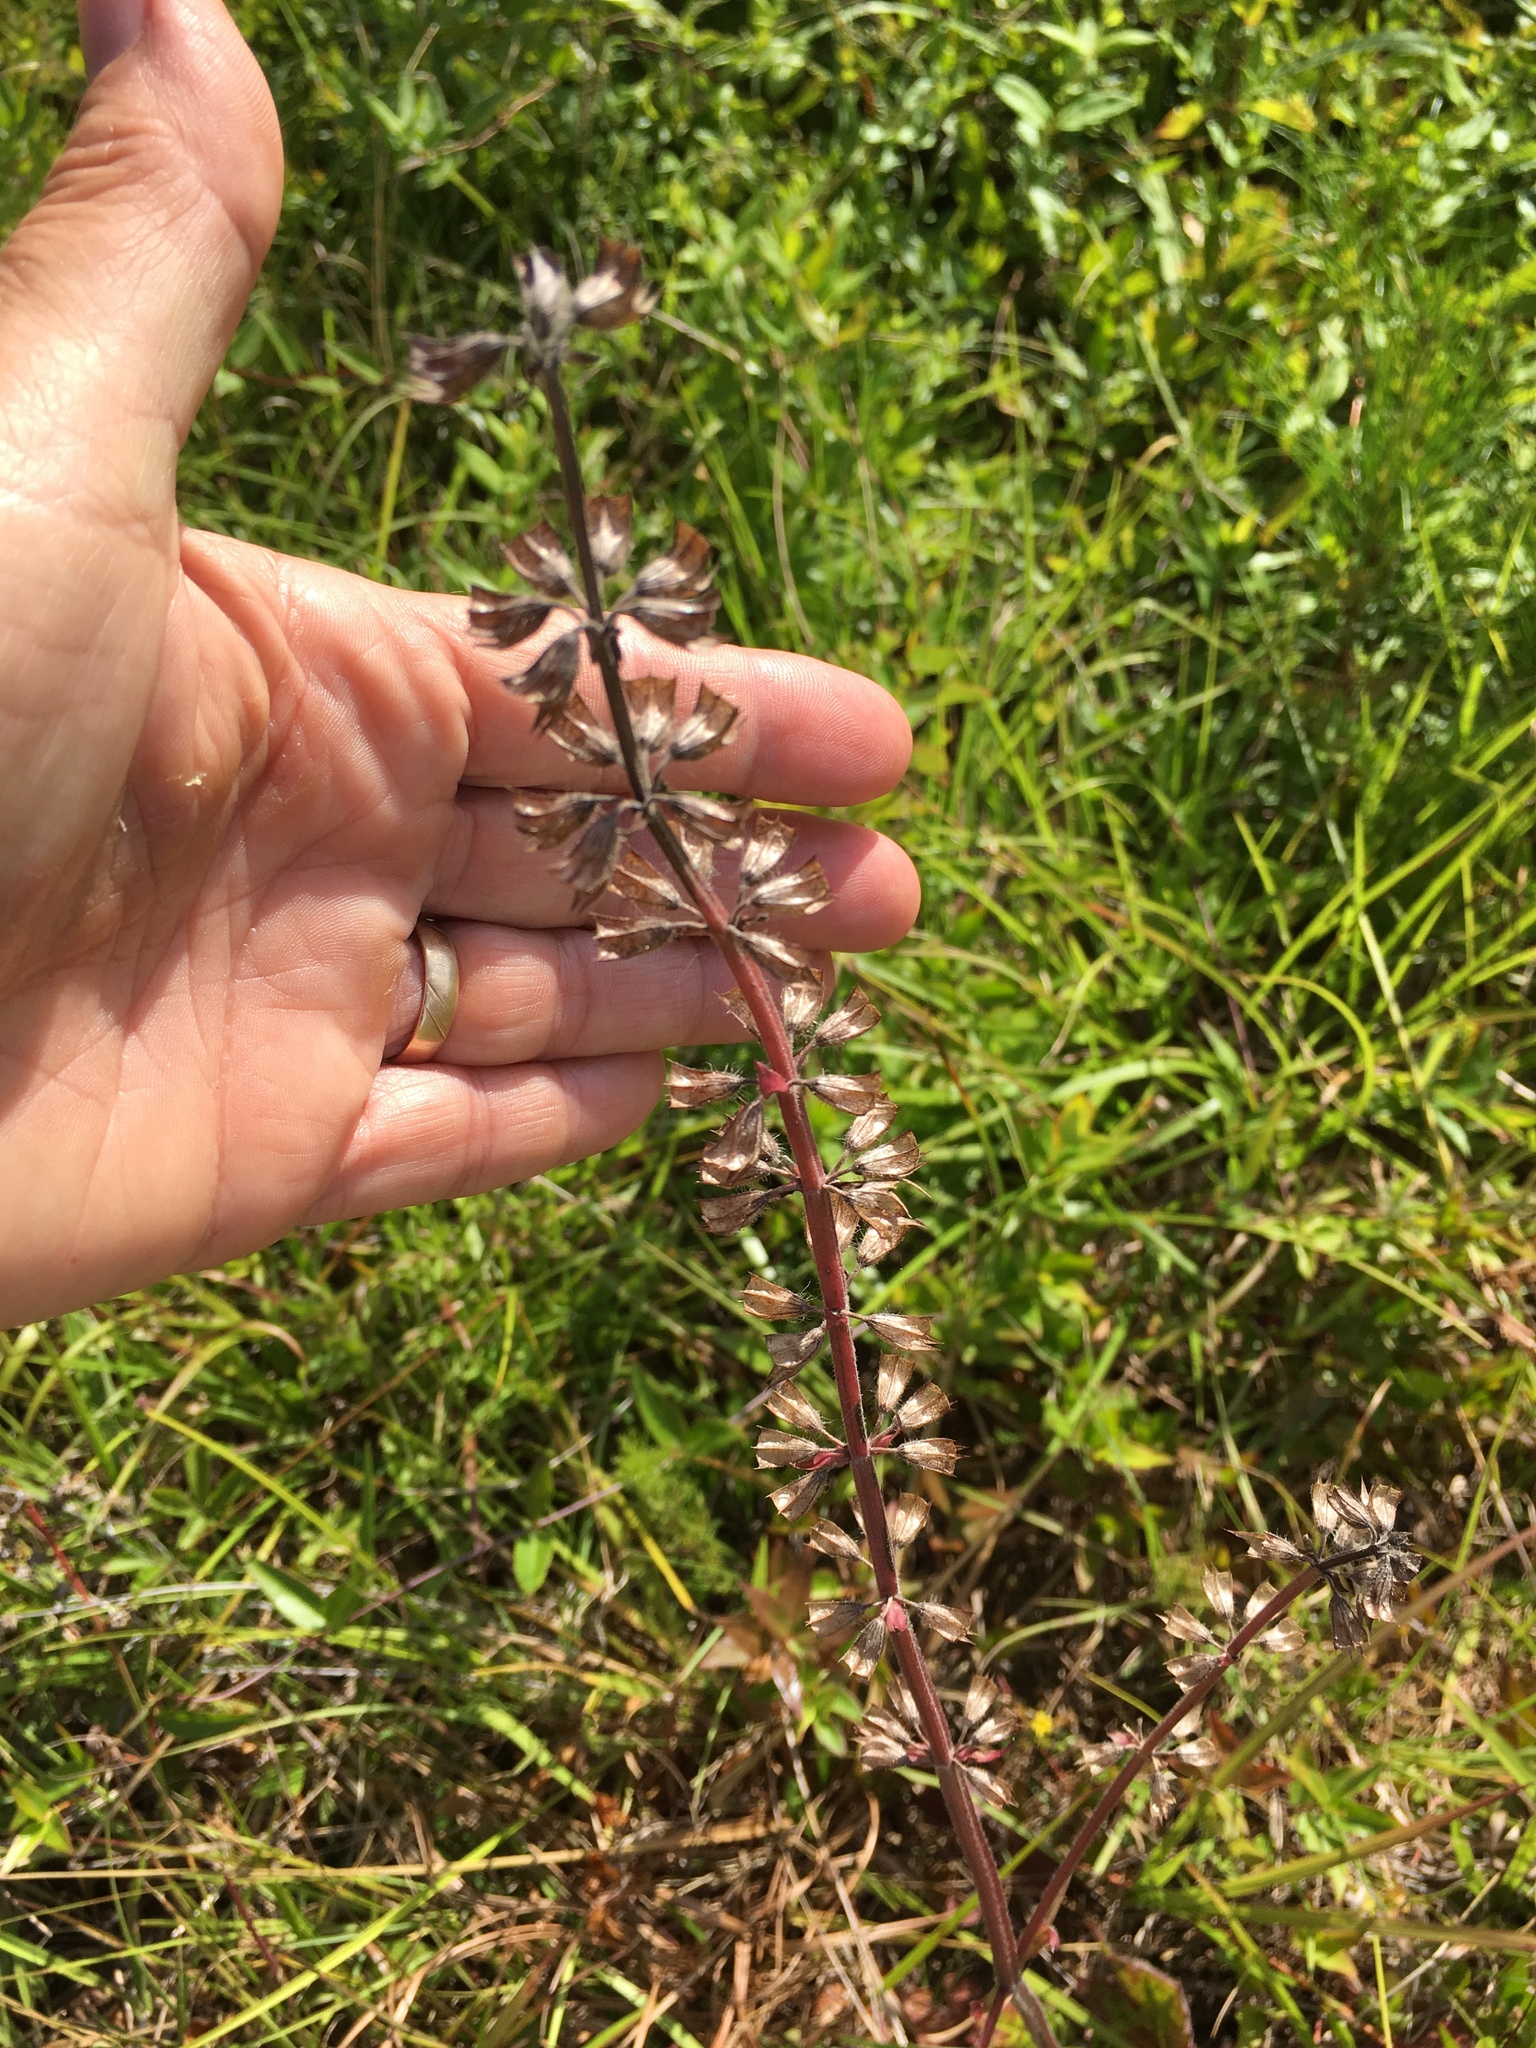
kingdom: Plantae
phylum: Tracheophyta
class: Magnoliopsida
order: Lamiales
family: Lamiaceae
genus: Salvia
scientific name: Salvia lyrata
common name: Cancerweed
